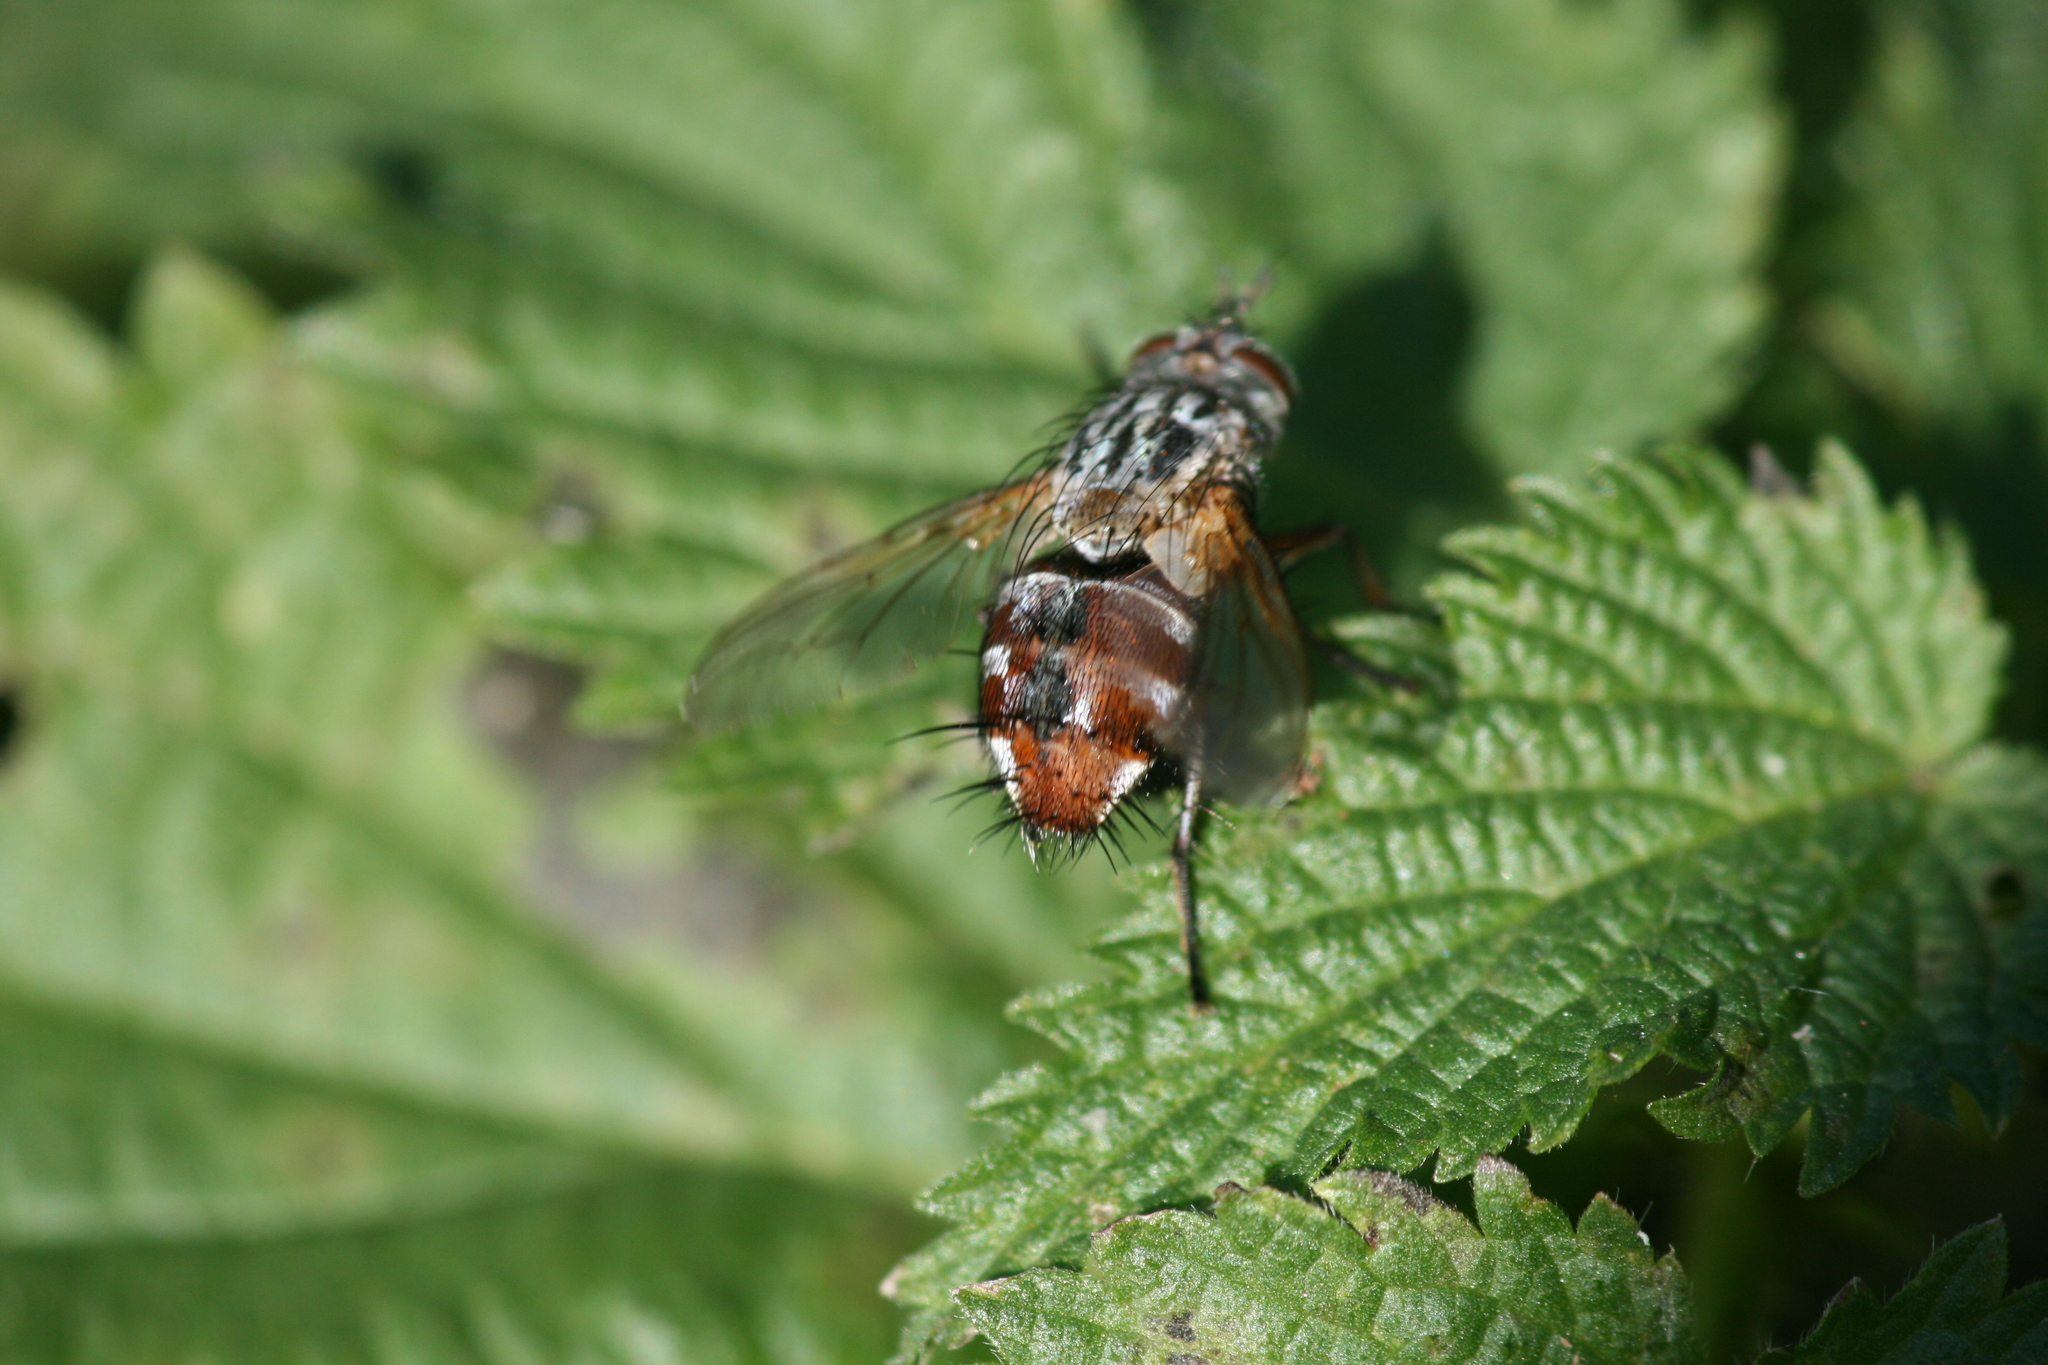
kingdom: Animalia
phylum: Arthropoda
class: Insecta
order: Diptera
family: Tachinidae
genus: Linnaemya
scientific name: Linnaemya vulpina
